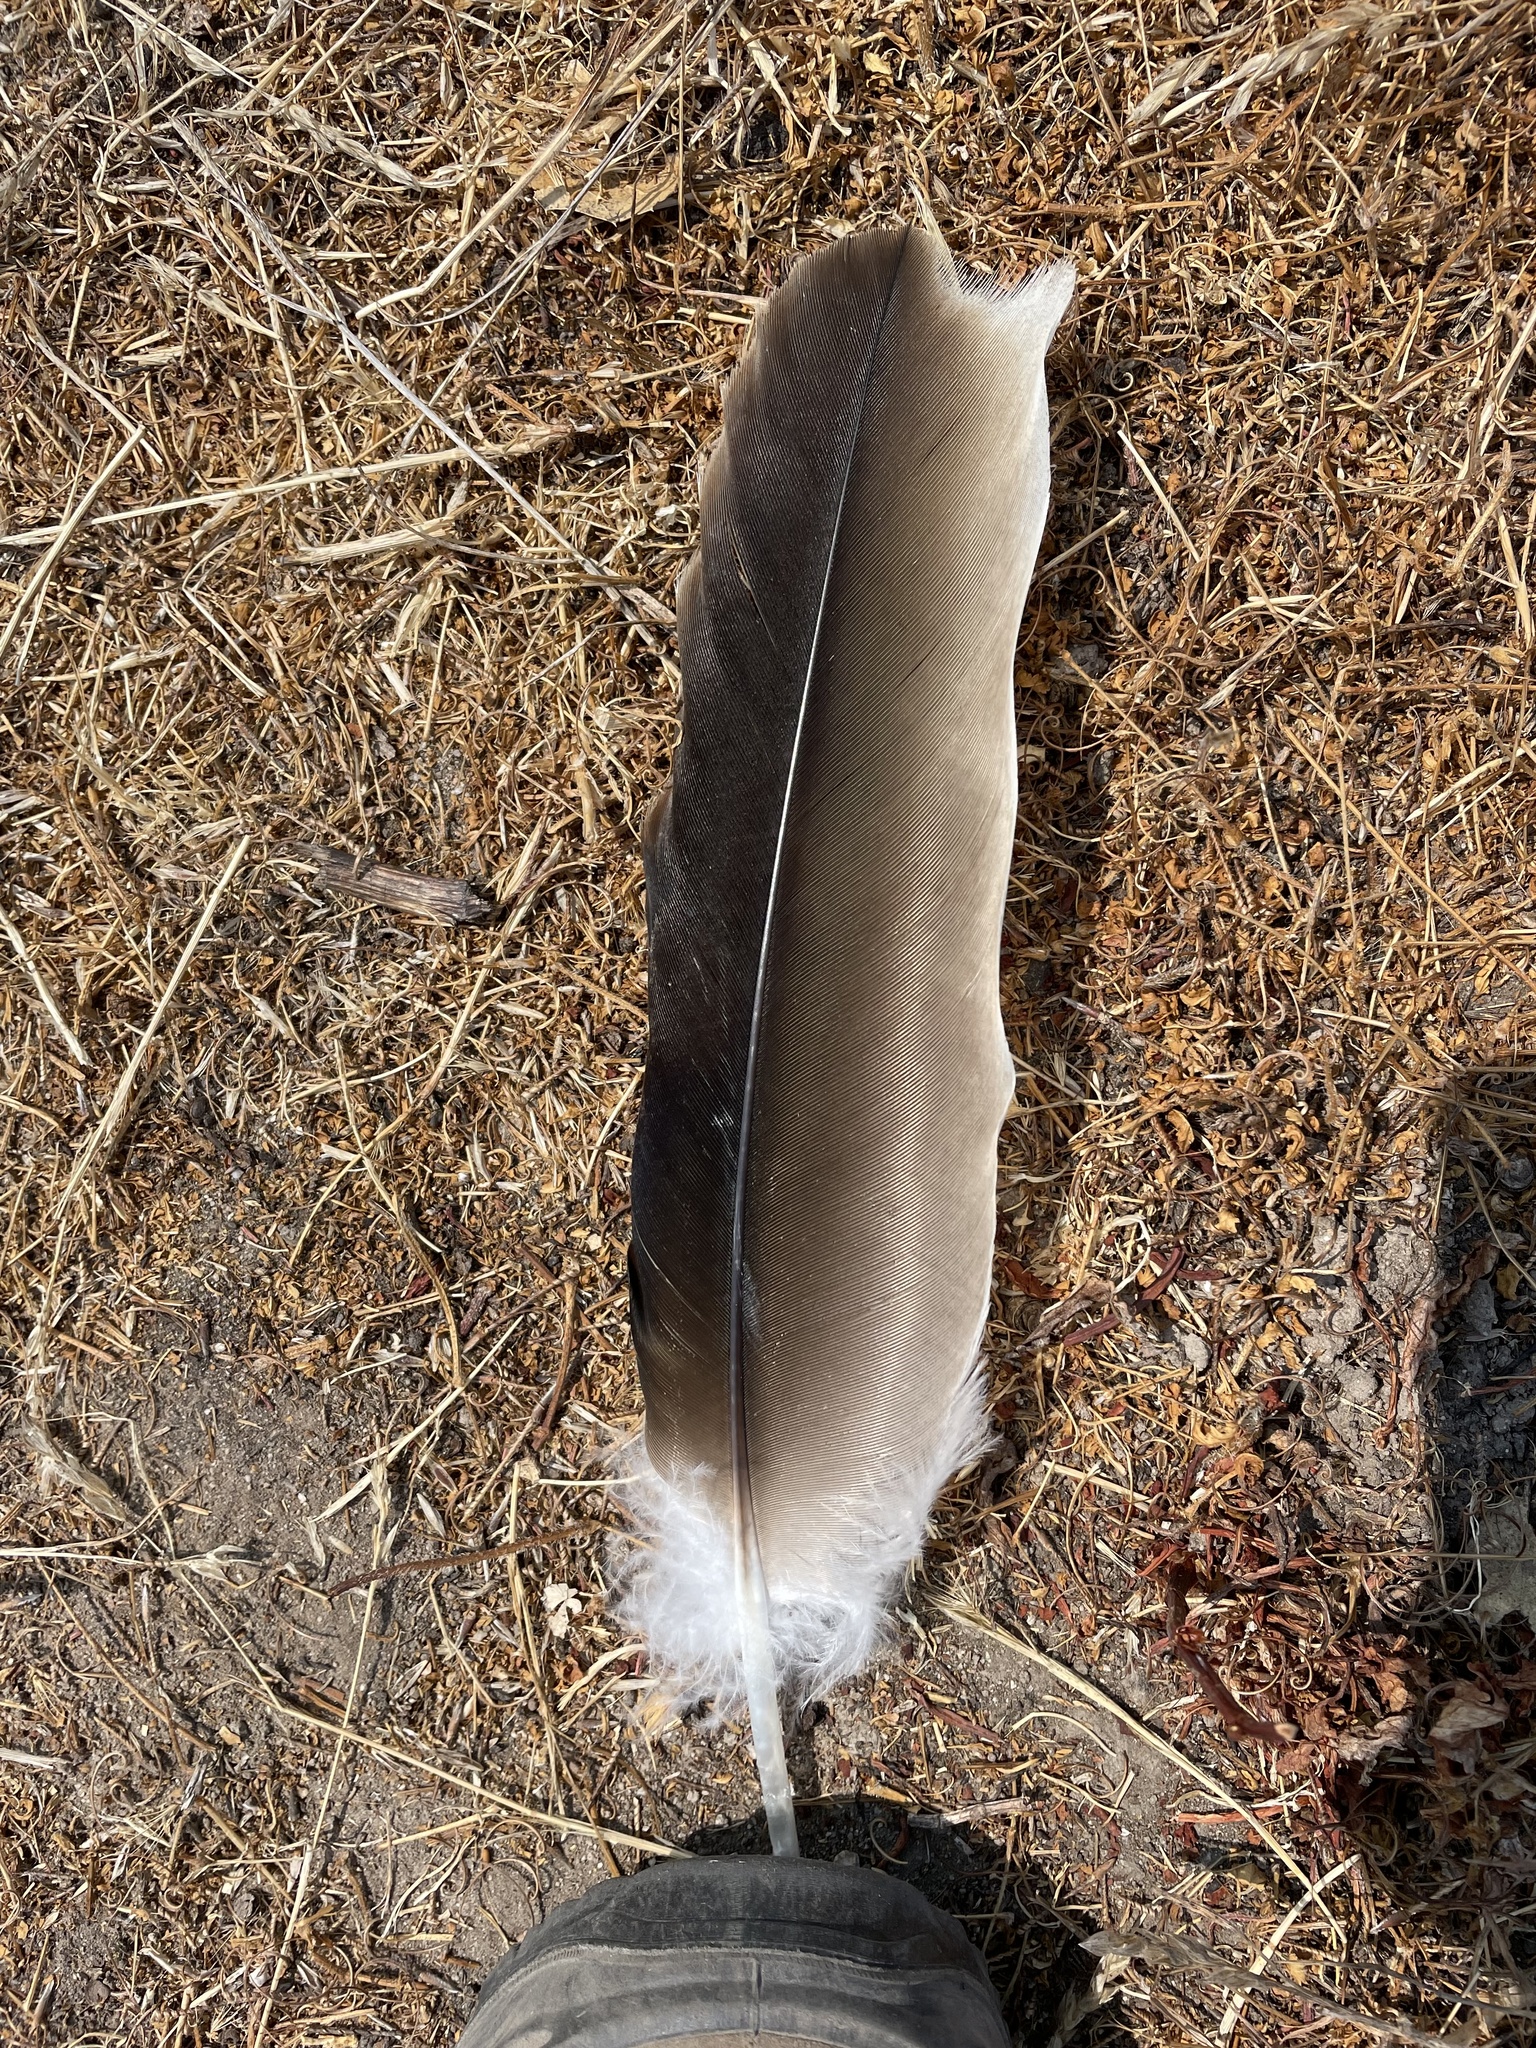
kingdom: Animalia
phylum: Chordata
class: Aves
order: Accipitriformes
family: Cathartidae
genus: Cathartes
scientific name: Cathartes aura
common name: Turkey vulture
